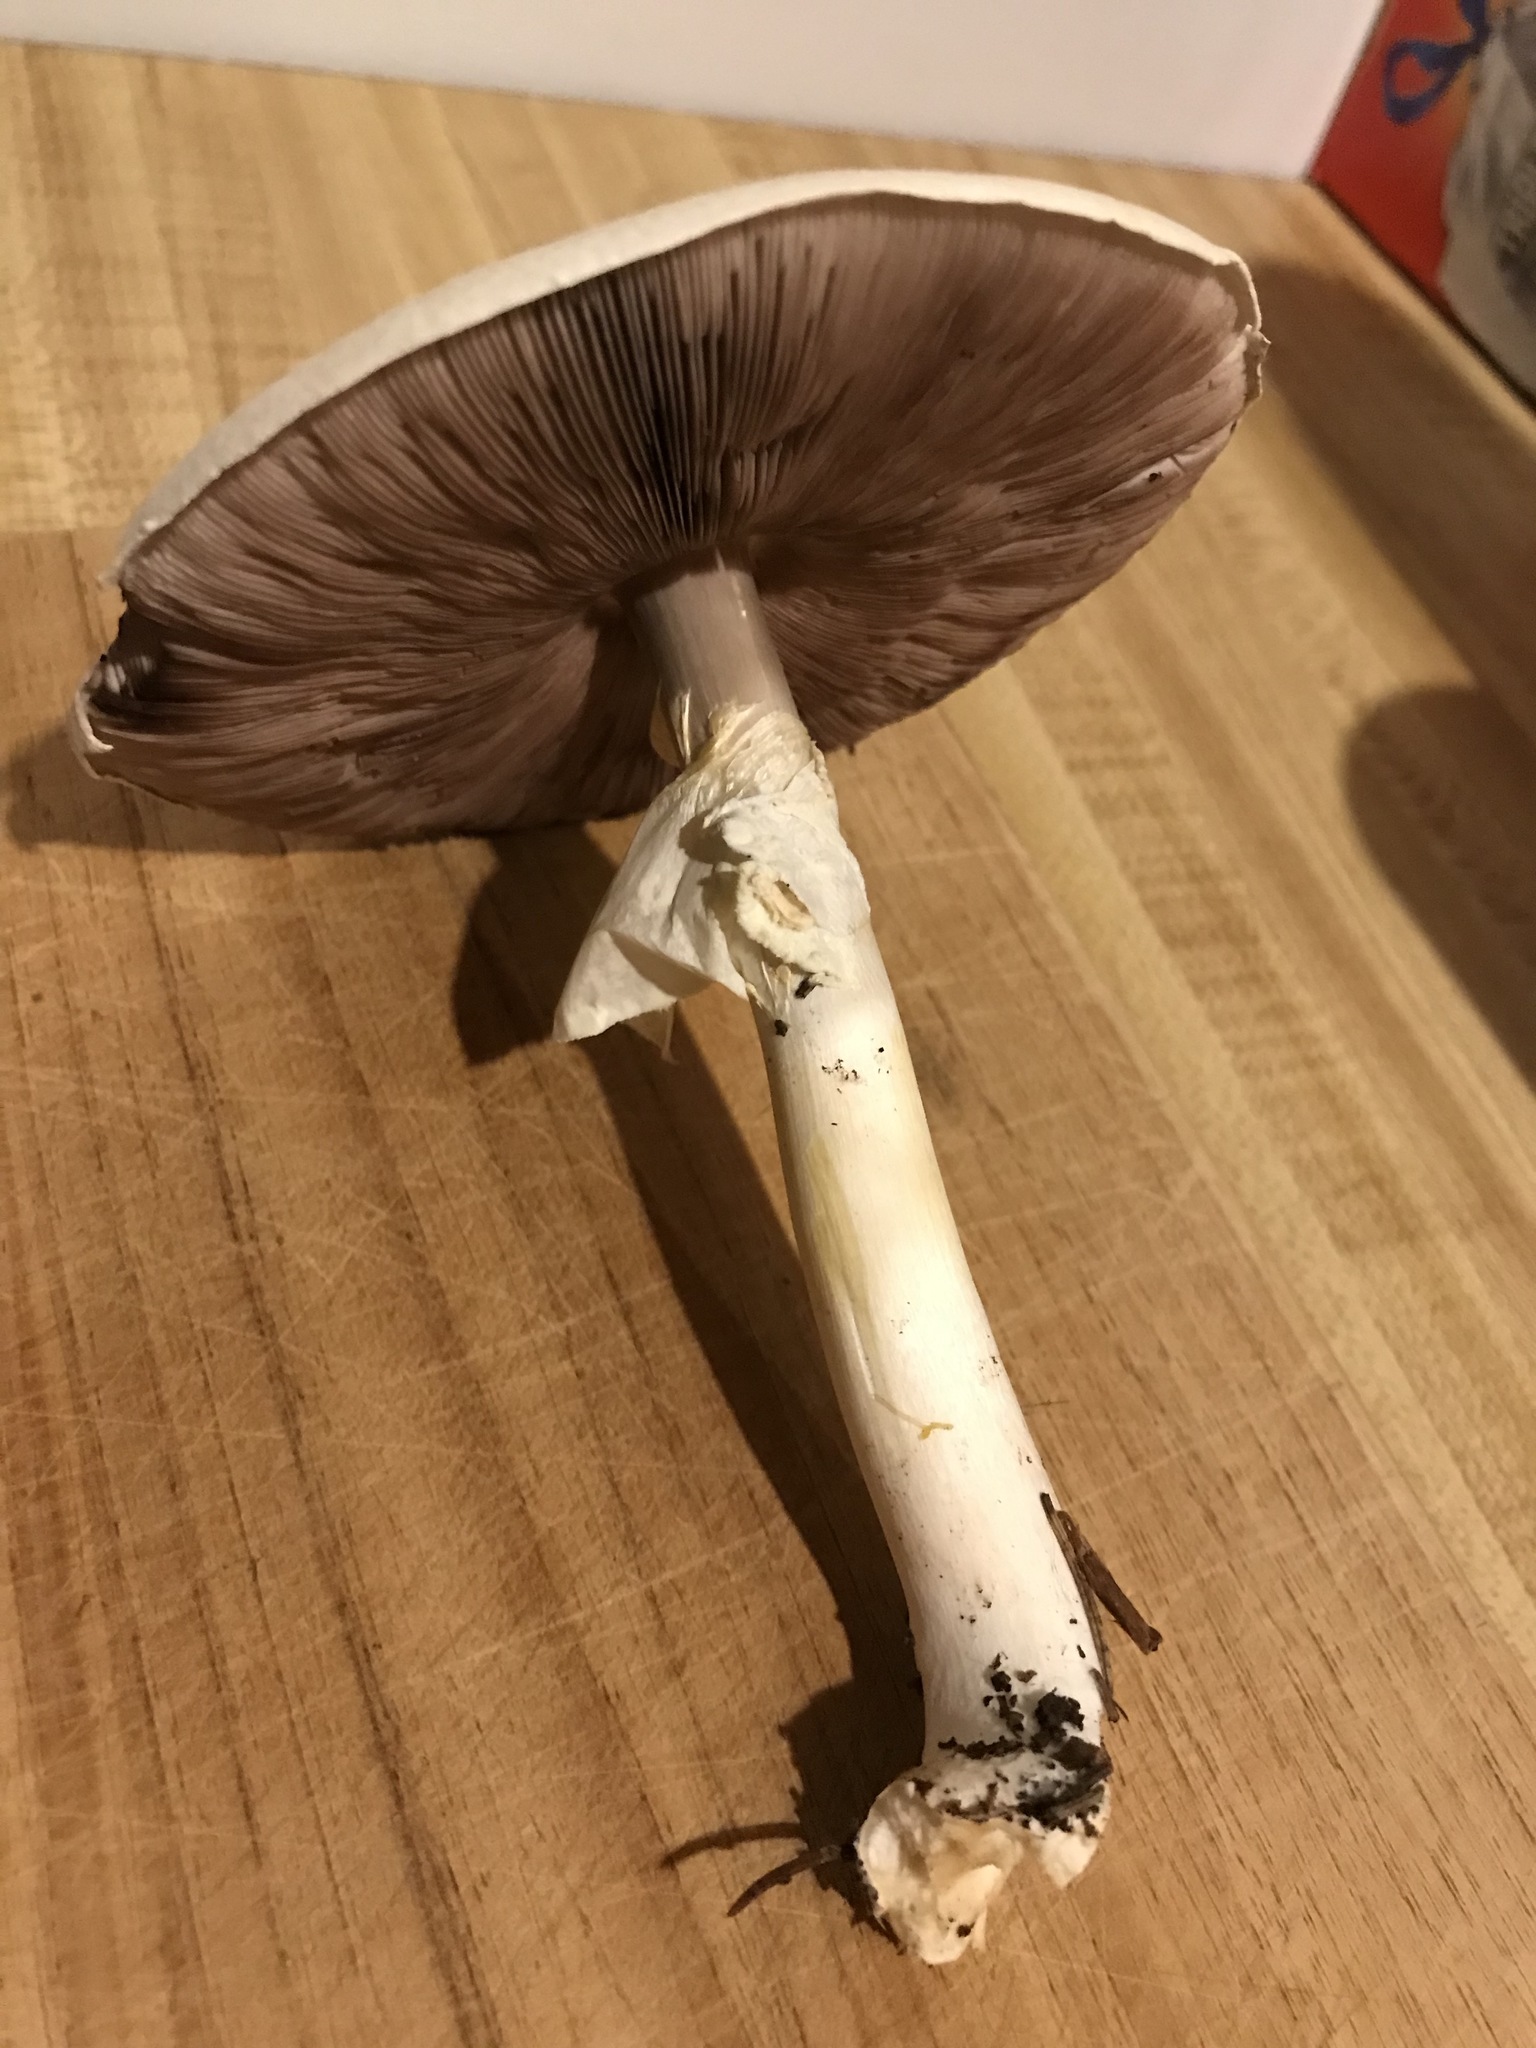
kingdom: Fungi
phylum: Basidiomycota
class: Agaricomycetes
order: Agaricales
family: Agaricaceae
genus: Agaricus
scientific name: Agaricus sylvicola
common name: Wood mushroom
